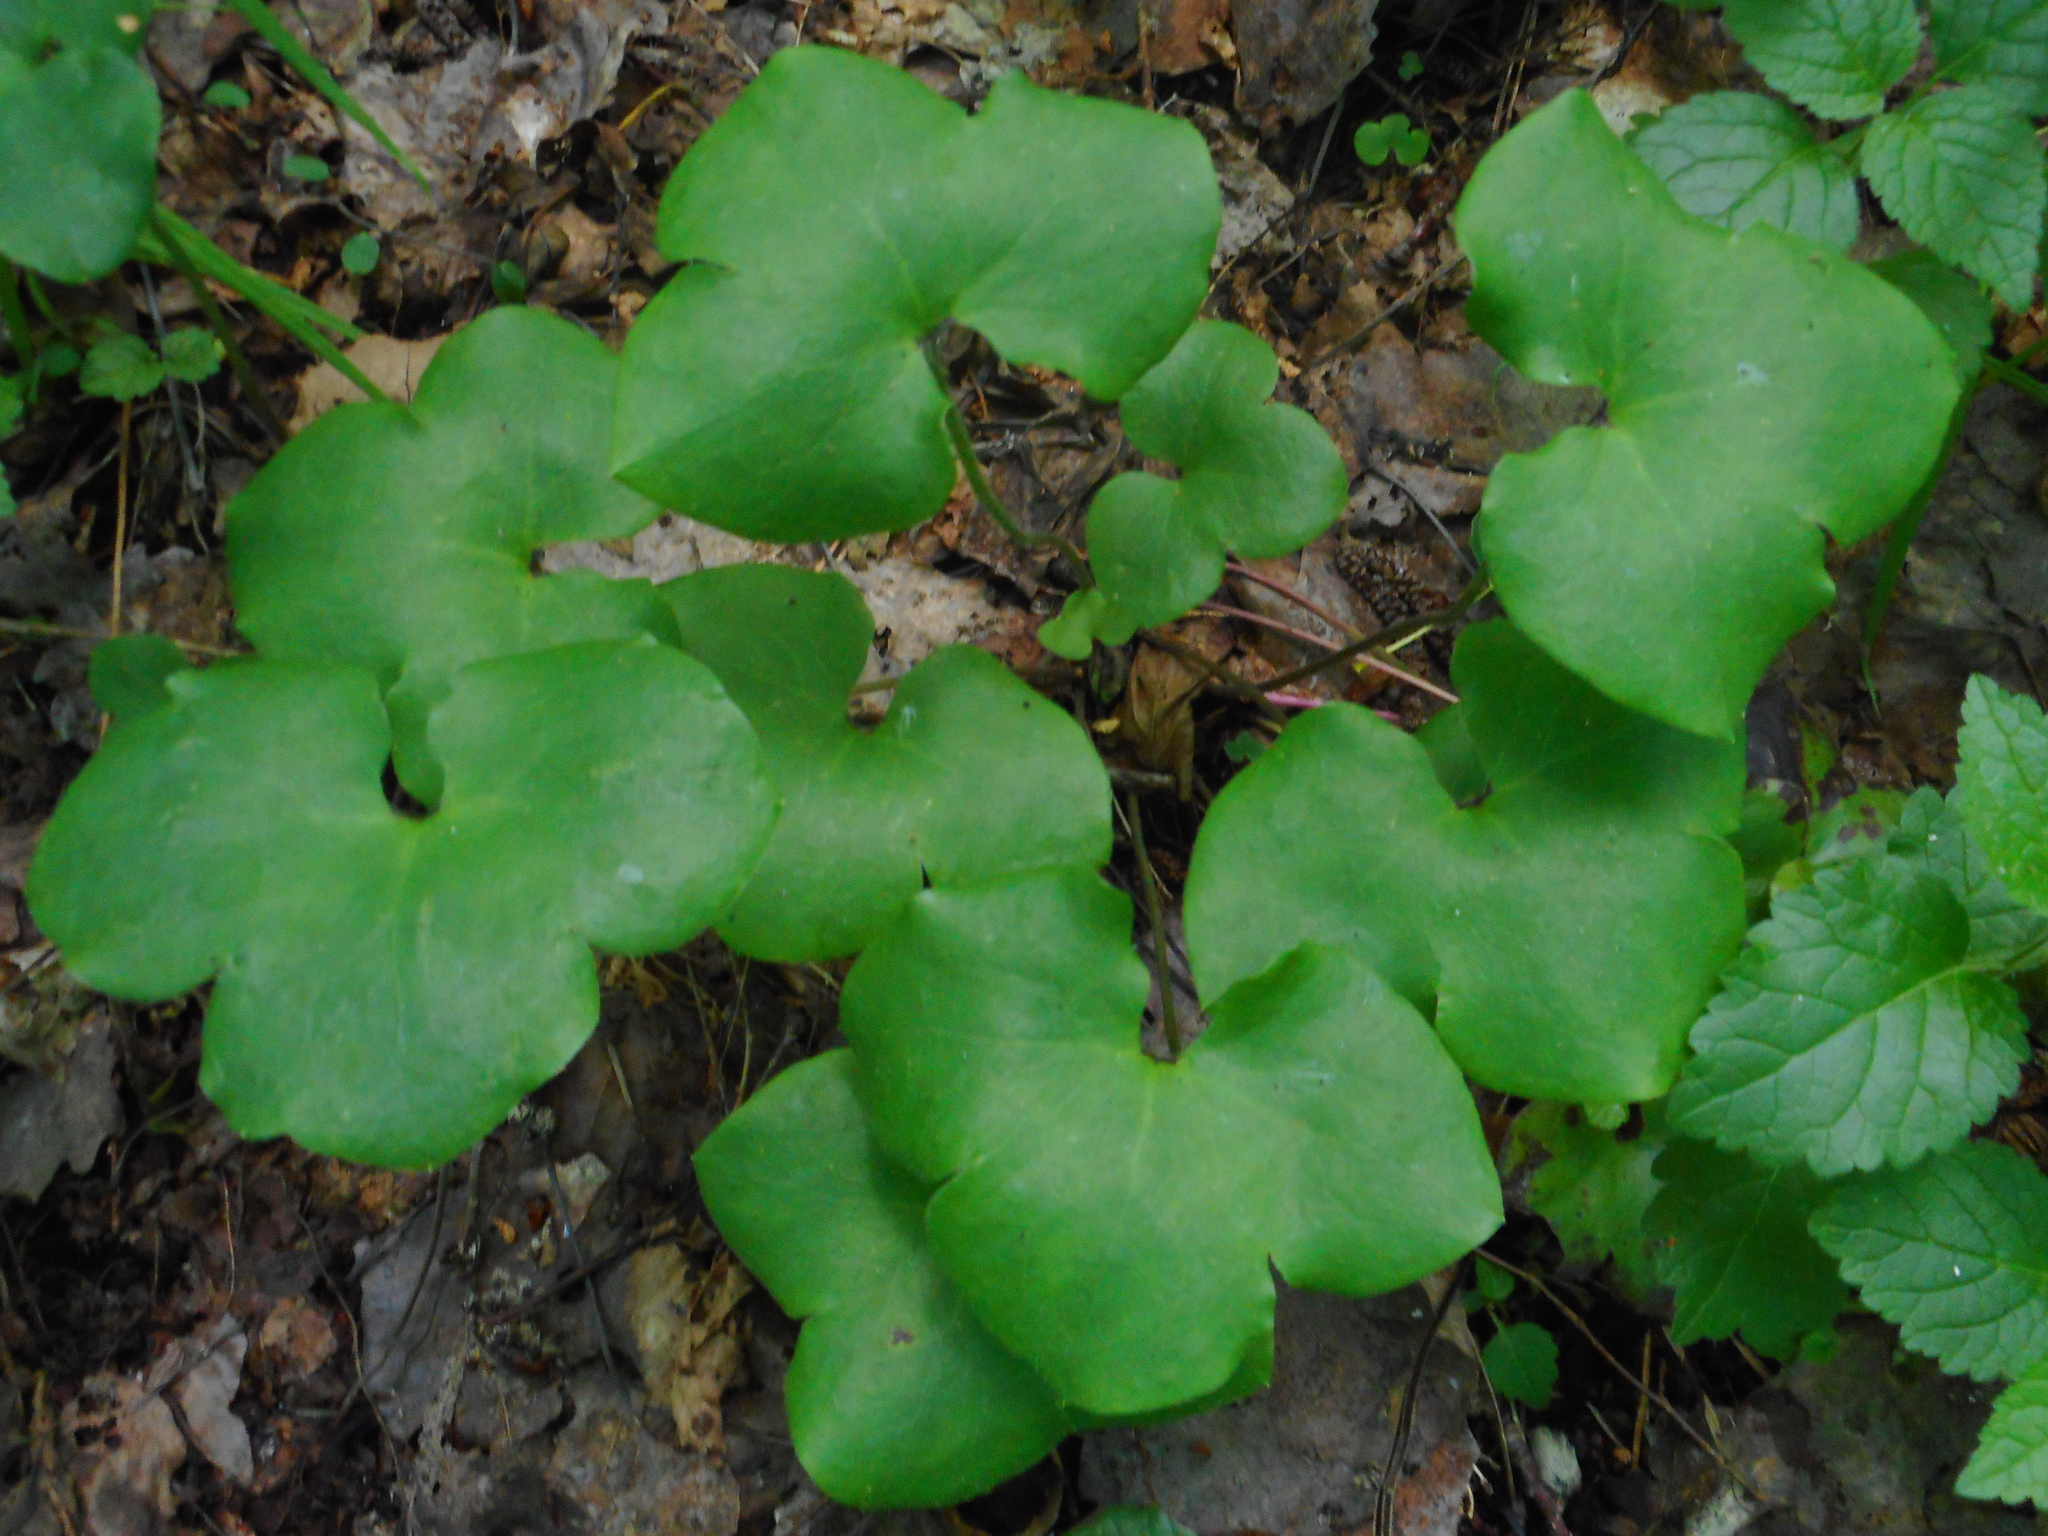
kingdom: Plantae
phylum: Tracheophyta
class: Magnoliopsida
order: Ranunculales
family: Ranunculaceae
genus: Hepatica
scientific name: Hepatica nobilis
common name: Liverleaf
